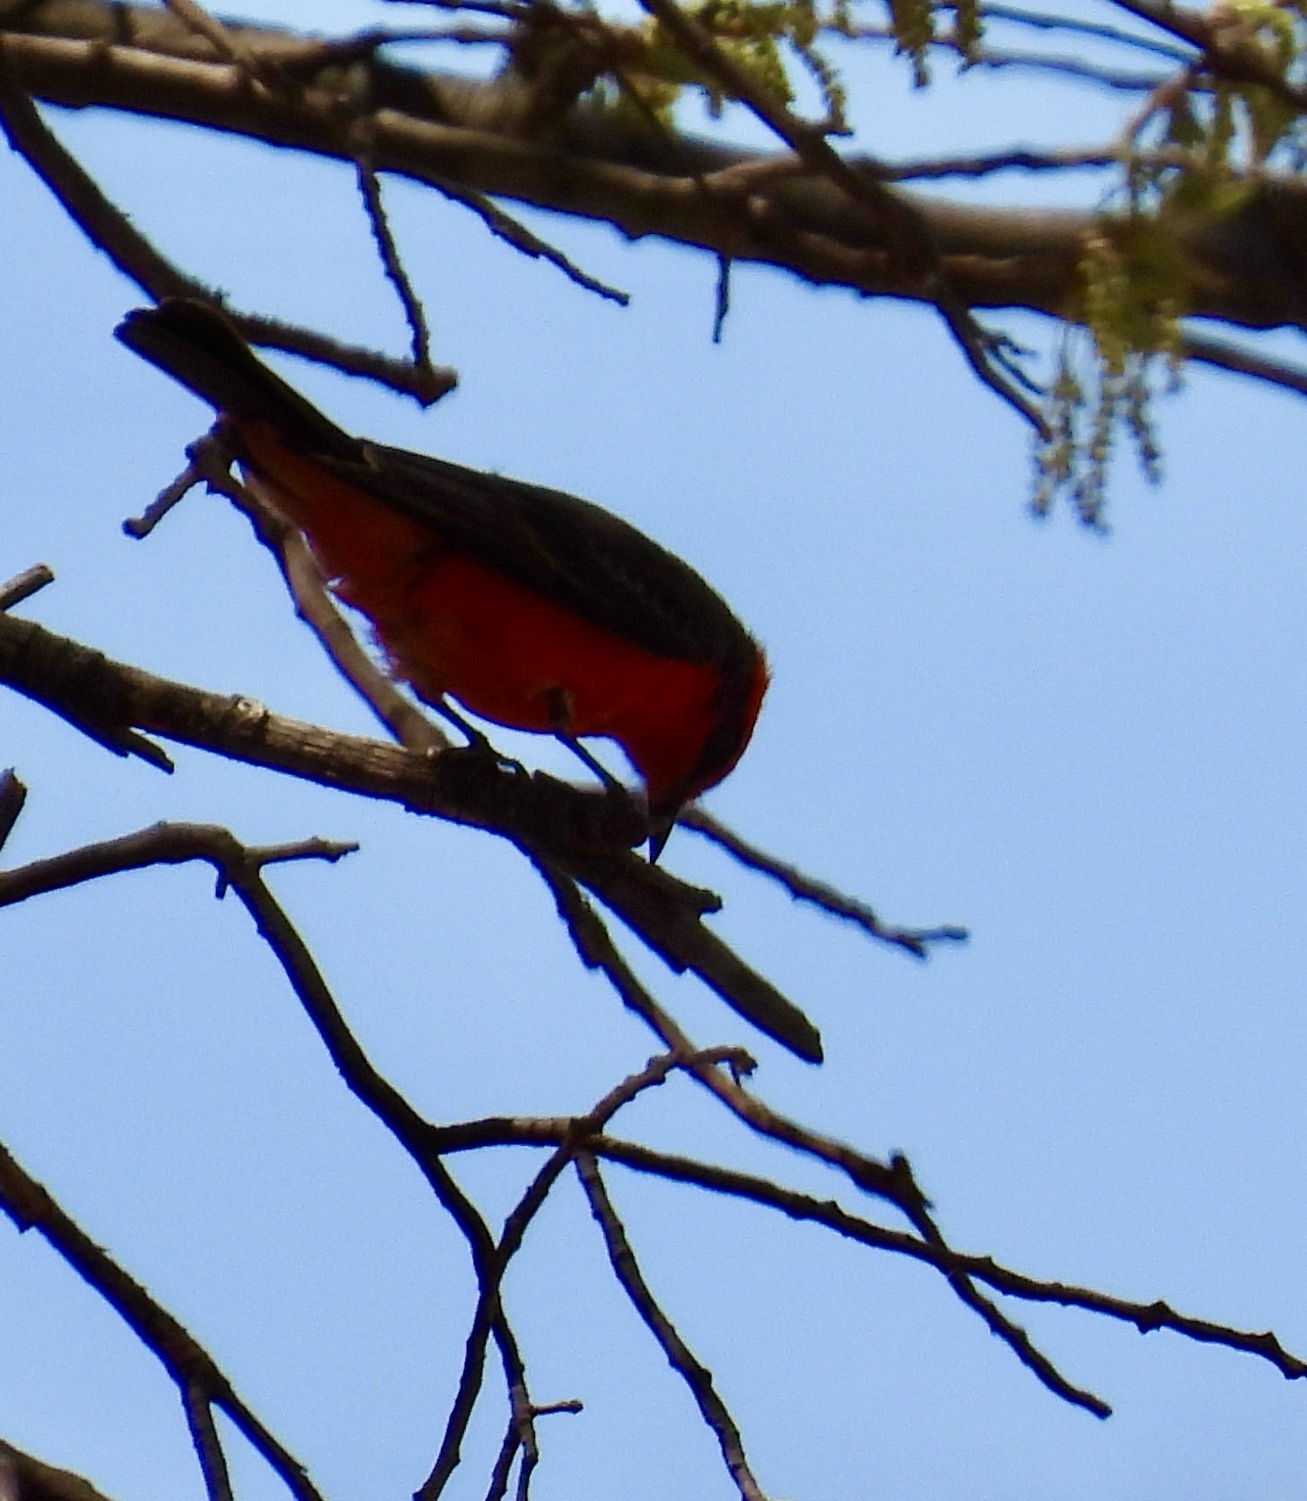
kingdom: Animalia
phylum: Chordata
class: Aves
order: Passeriformes
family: Tyrannidae
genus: Pyrocephalus
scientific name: Pyrocephalus rubinus
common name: Vermilion flycatcher
